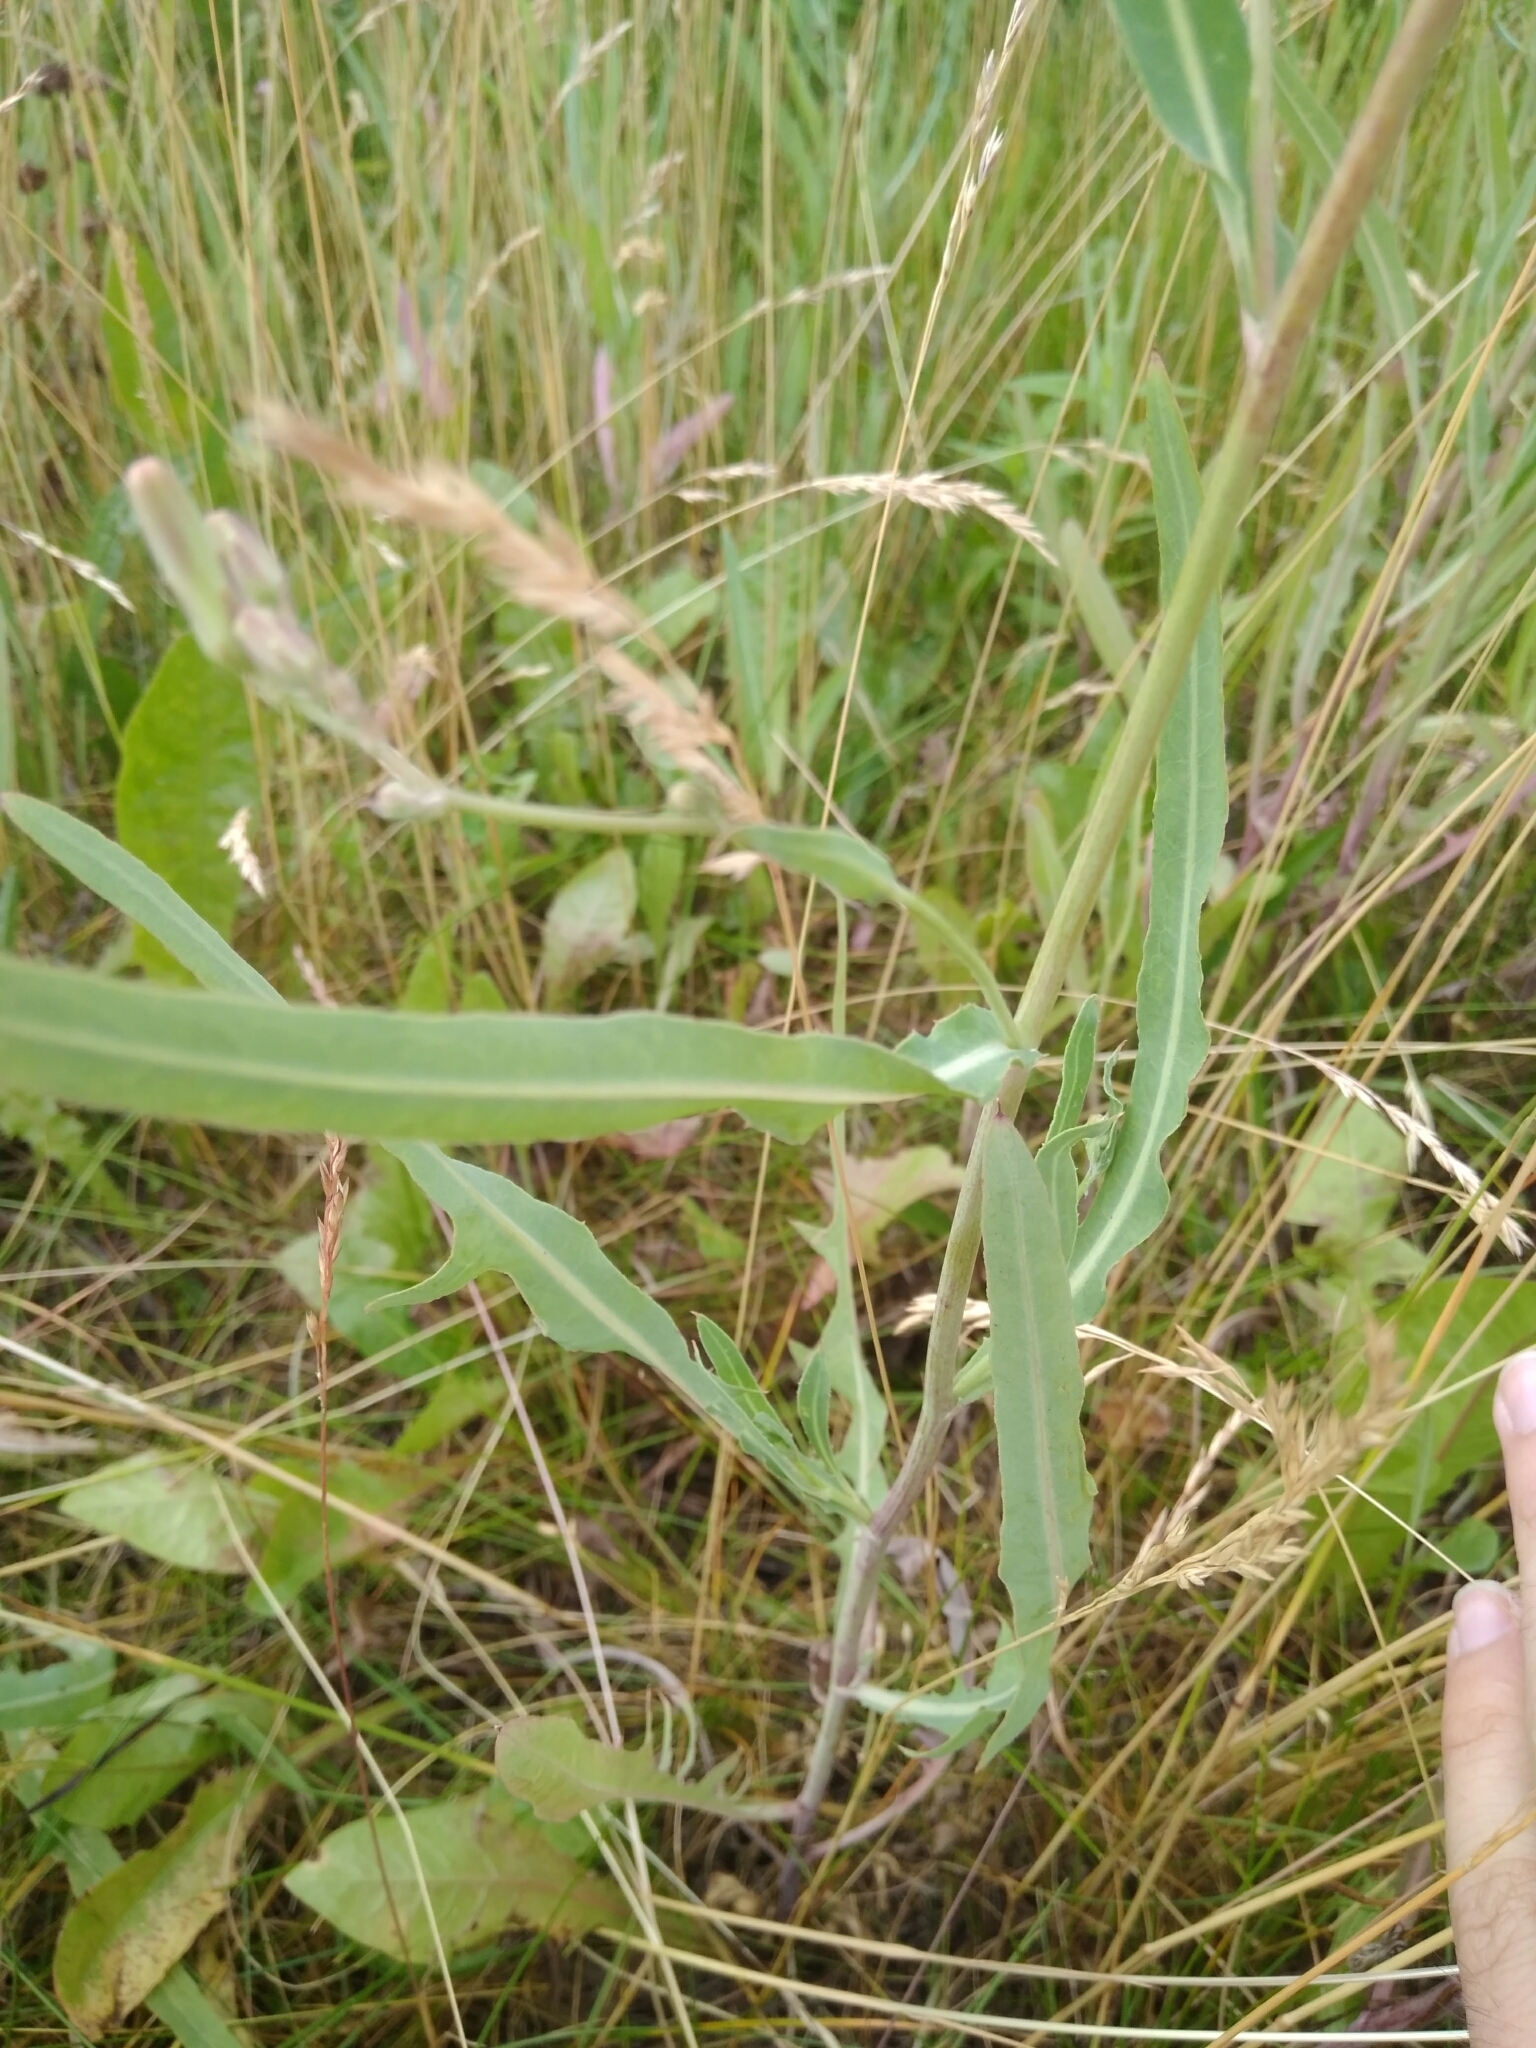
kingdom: Plantae
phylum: Tracheophyta
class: Magnoliopsida
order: Asterales
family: Asteraceae
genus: Lactuca
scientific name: Lactuca tatarica
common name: Blue lettuce
